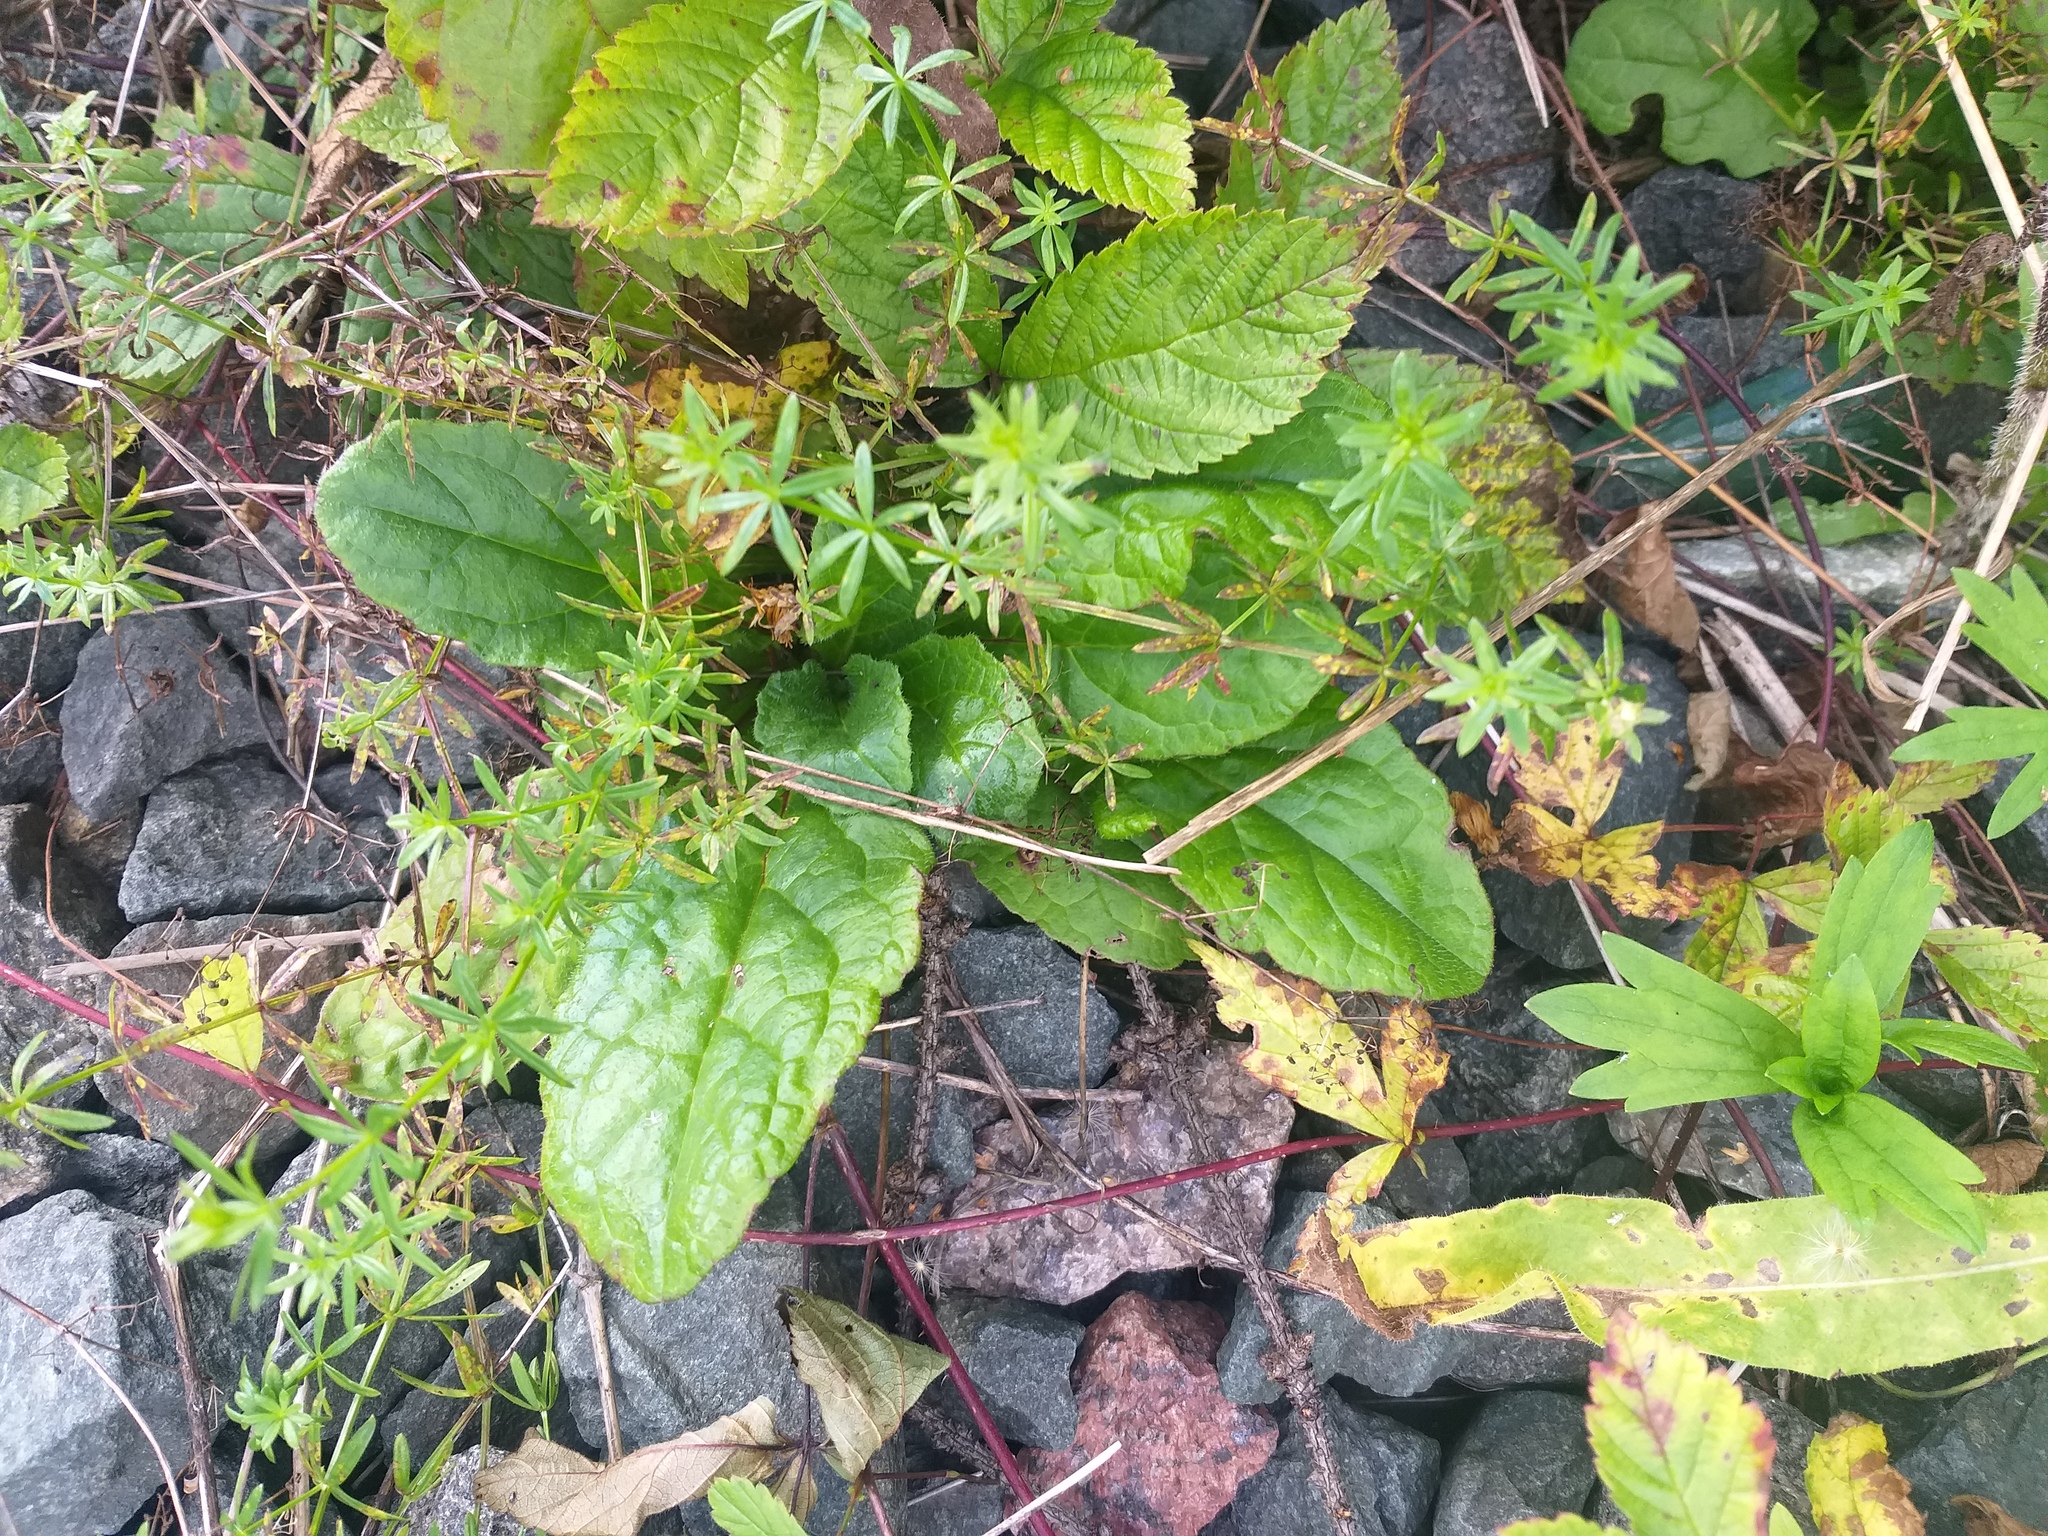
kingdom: Plantae
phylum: Tracheophyta
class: Magnoliopsida
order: Lamiales
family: Lamiaceae
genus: Ajuga
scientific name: Ajuga reptans
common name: Bugle
